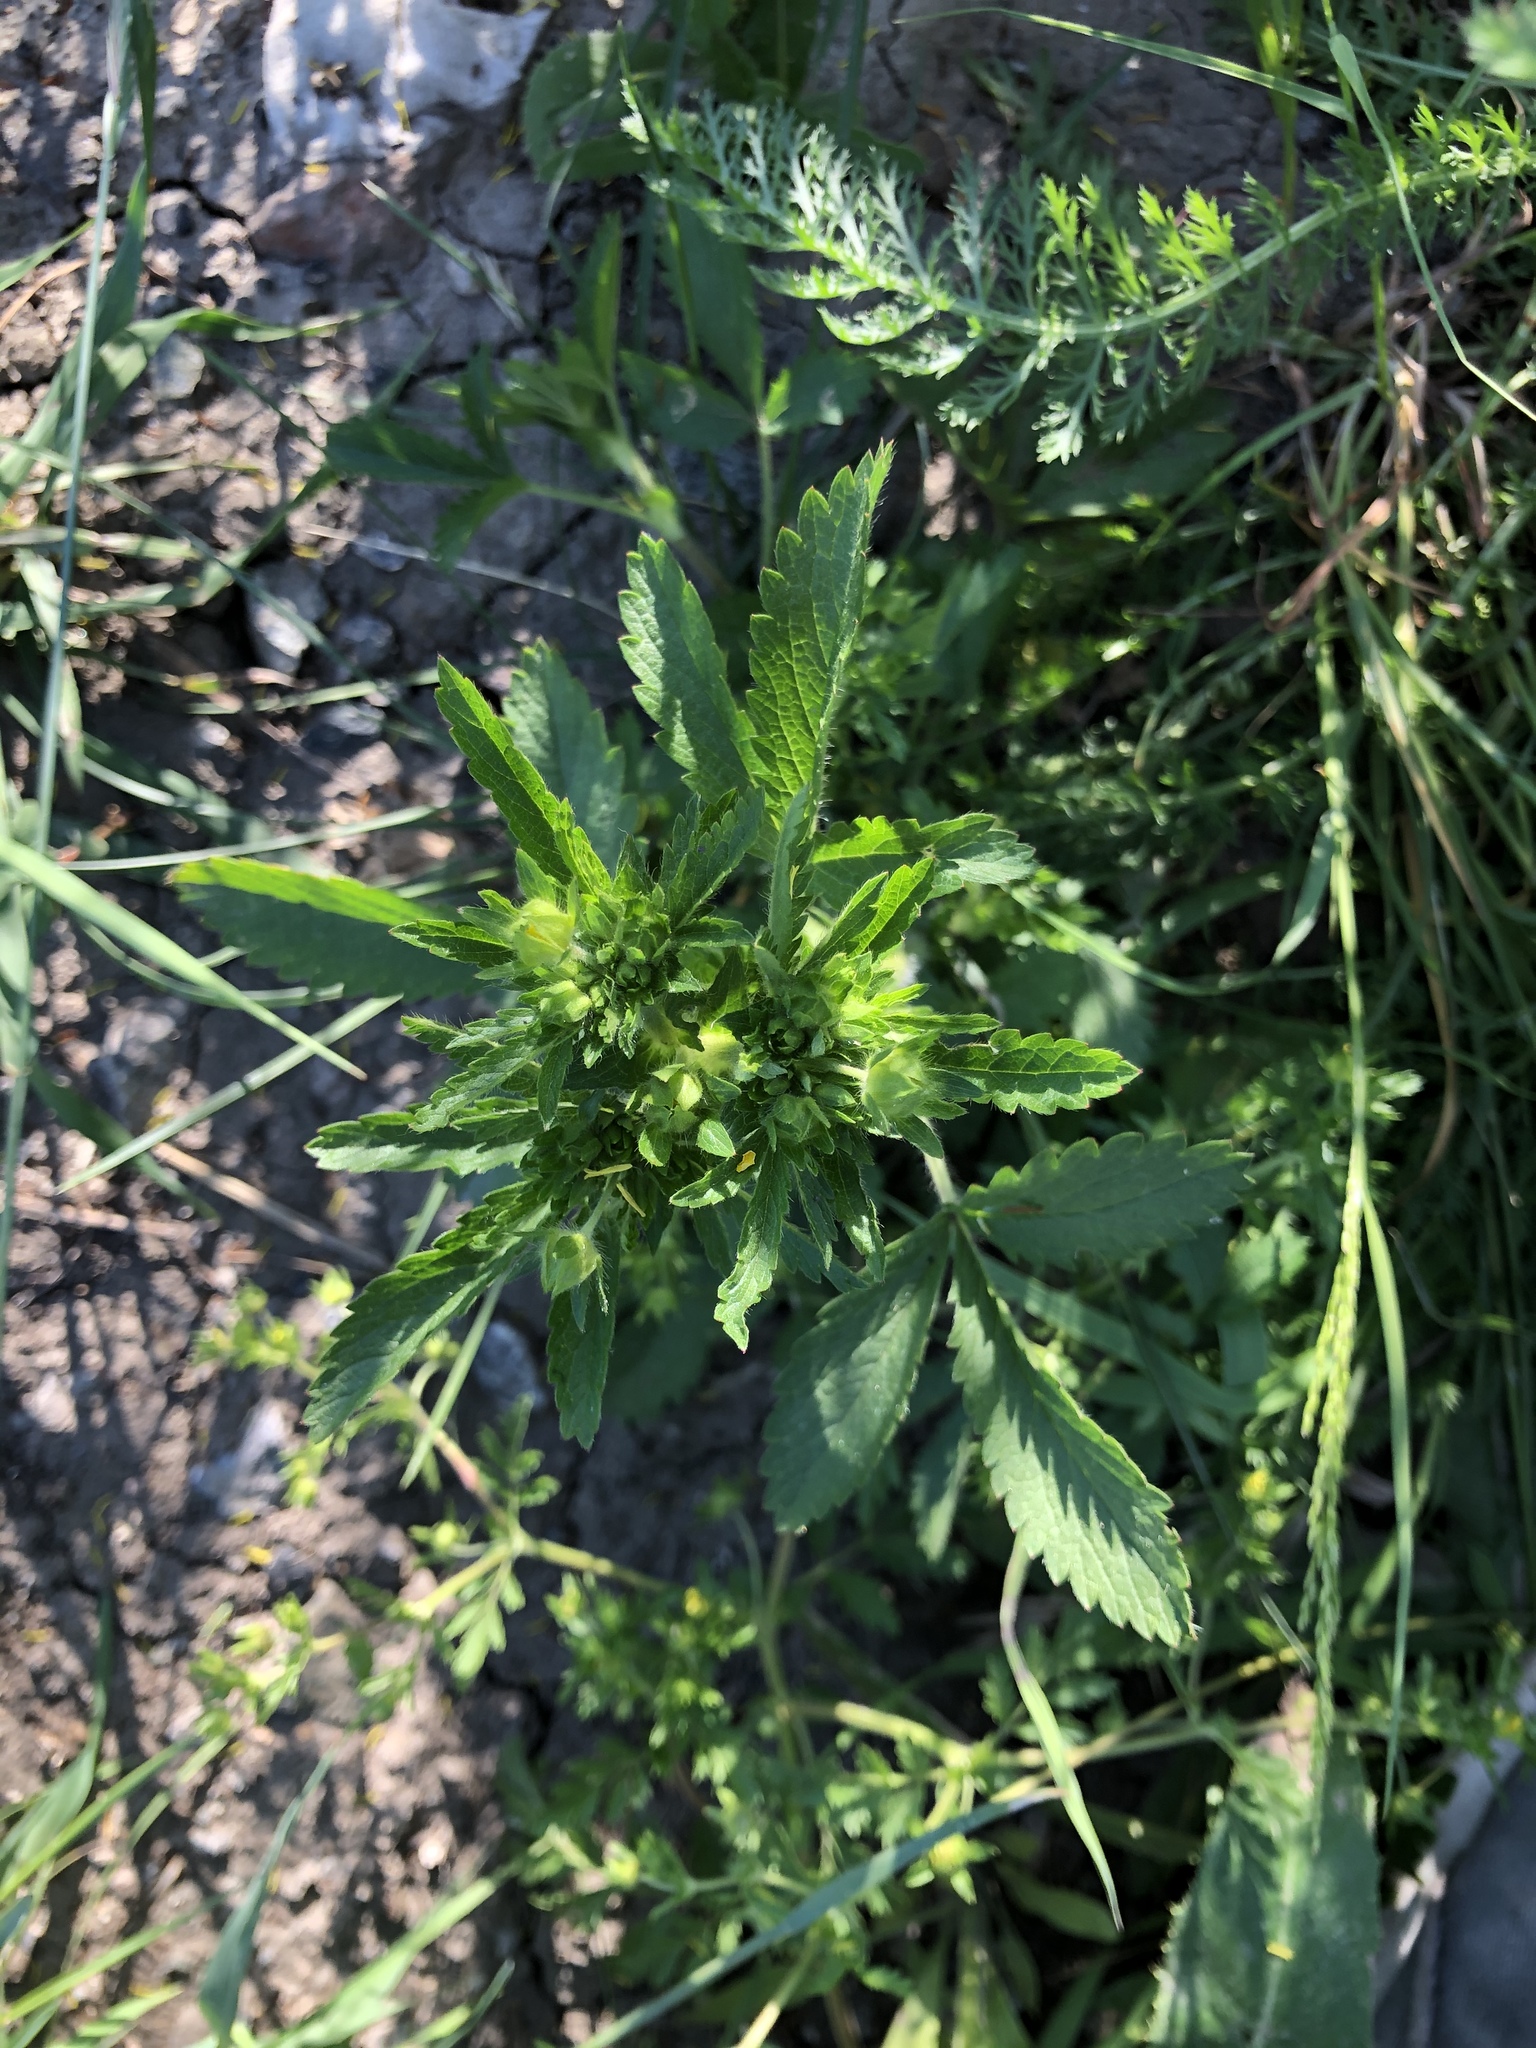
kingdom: Plantae
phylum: Tracheophyta
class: Magnoliopsida
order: Rosales
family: Rosaceae
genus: Potentilla
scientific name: Potentilla norvegica
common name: Ternate-leaved cinquefoil
